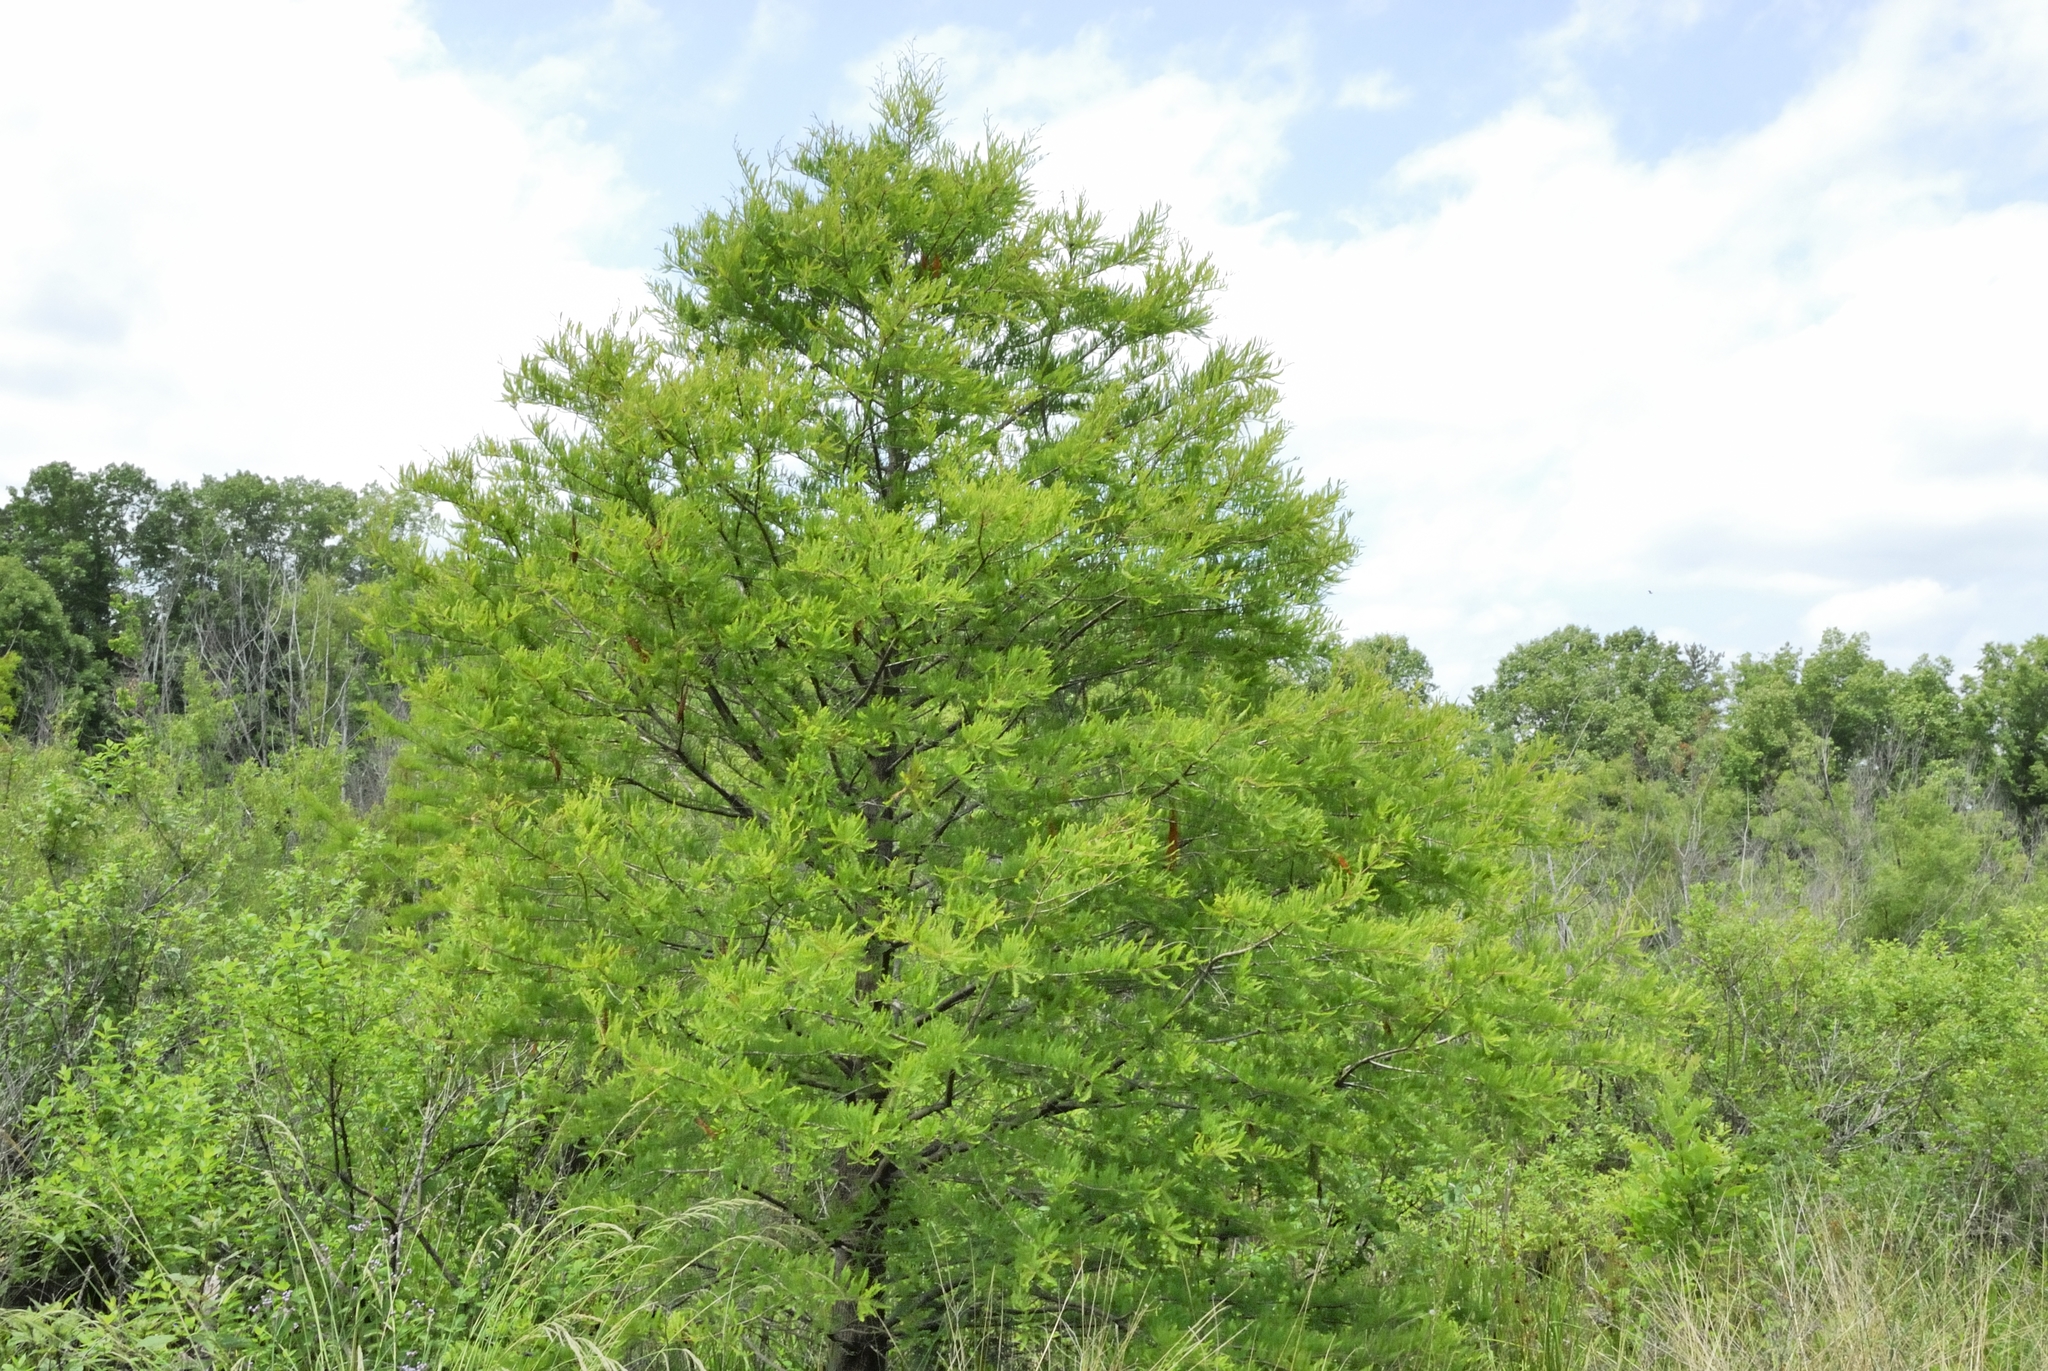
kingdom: Plantae
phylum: Tracheophyta
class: Pinopsida
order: Pinales
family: Cupressaceae
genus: Taxodium
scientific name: Taxodium distichum
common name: Bald cypress
